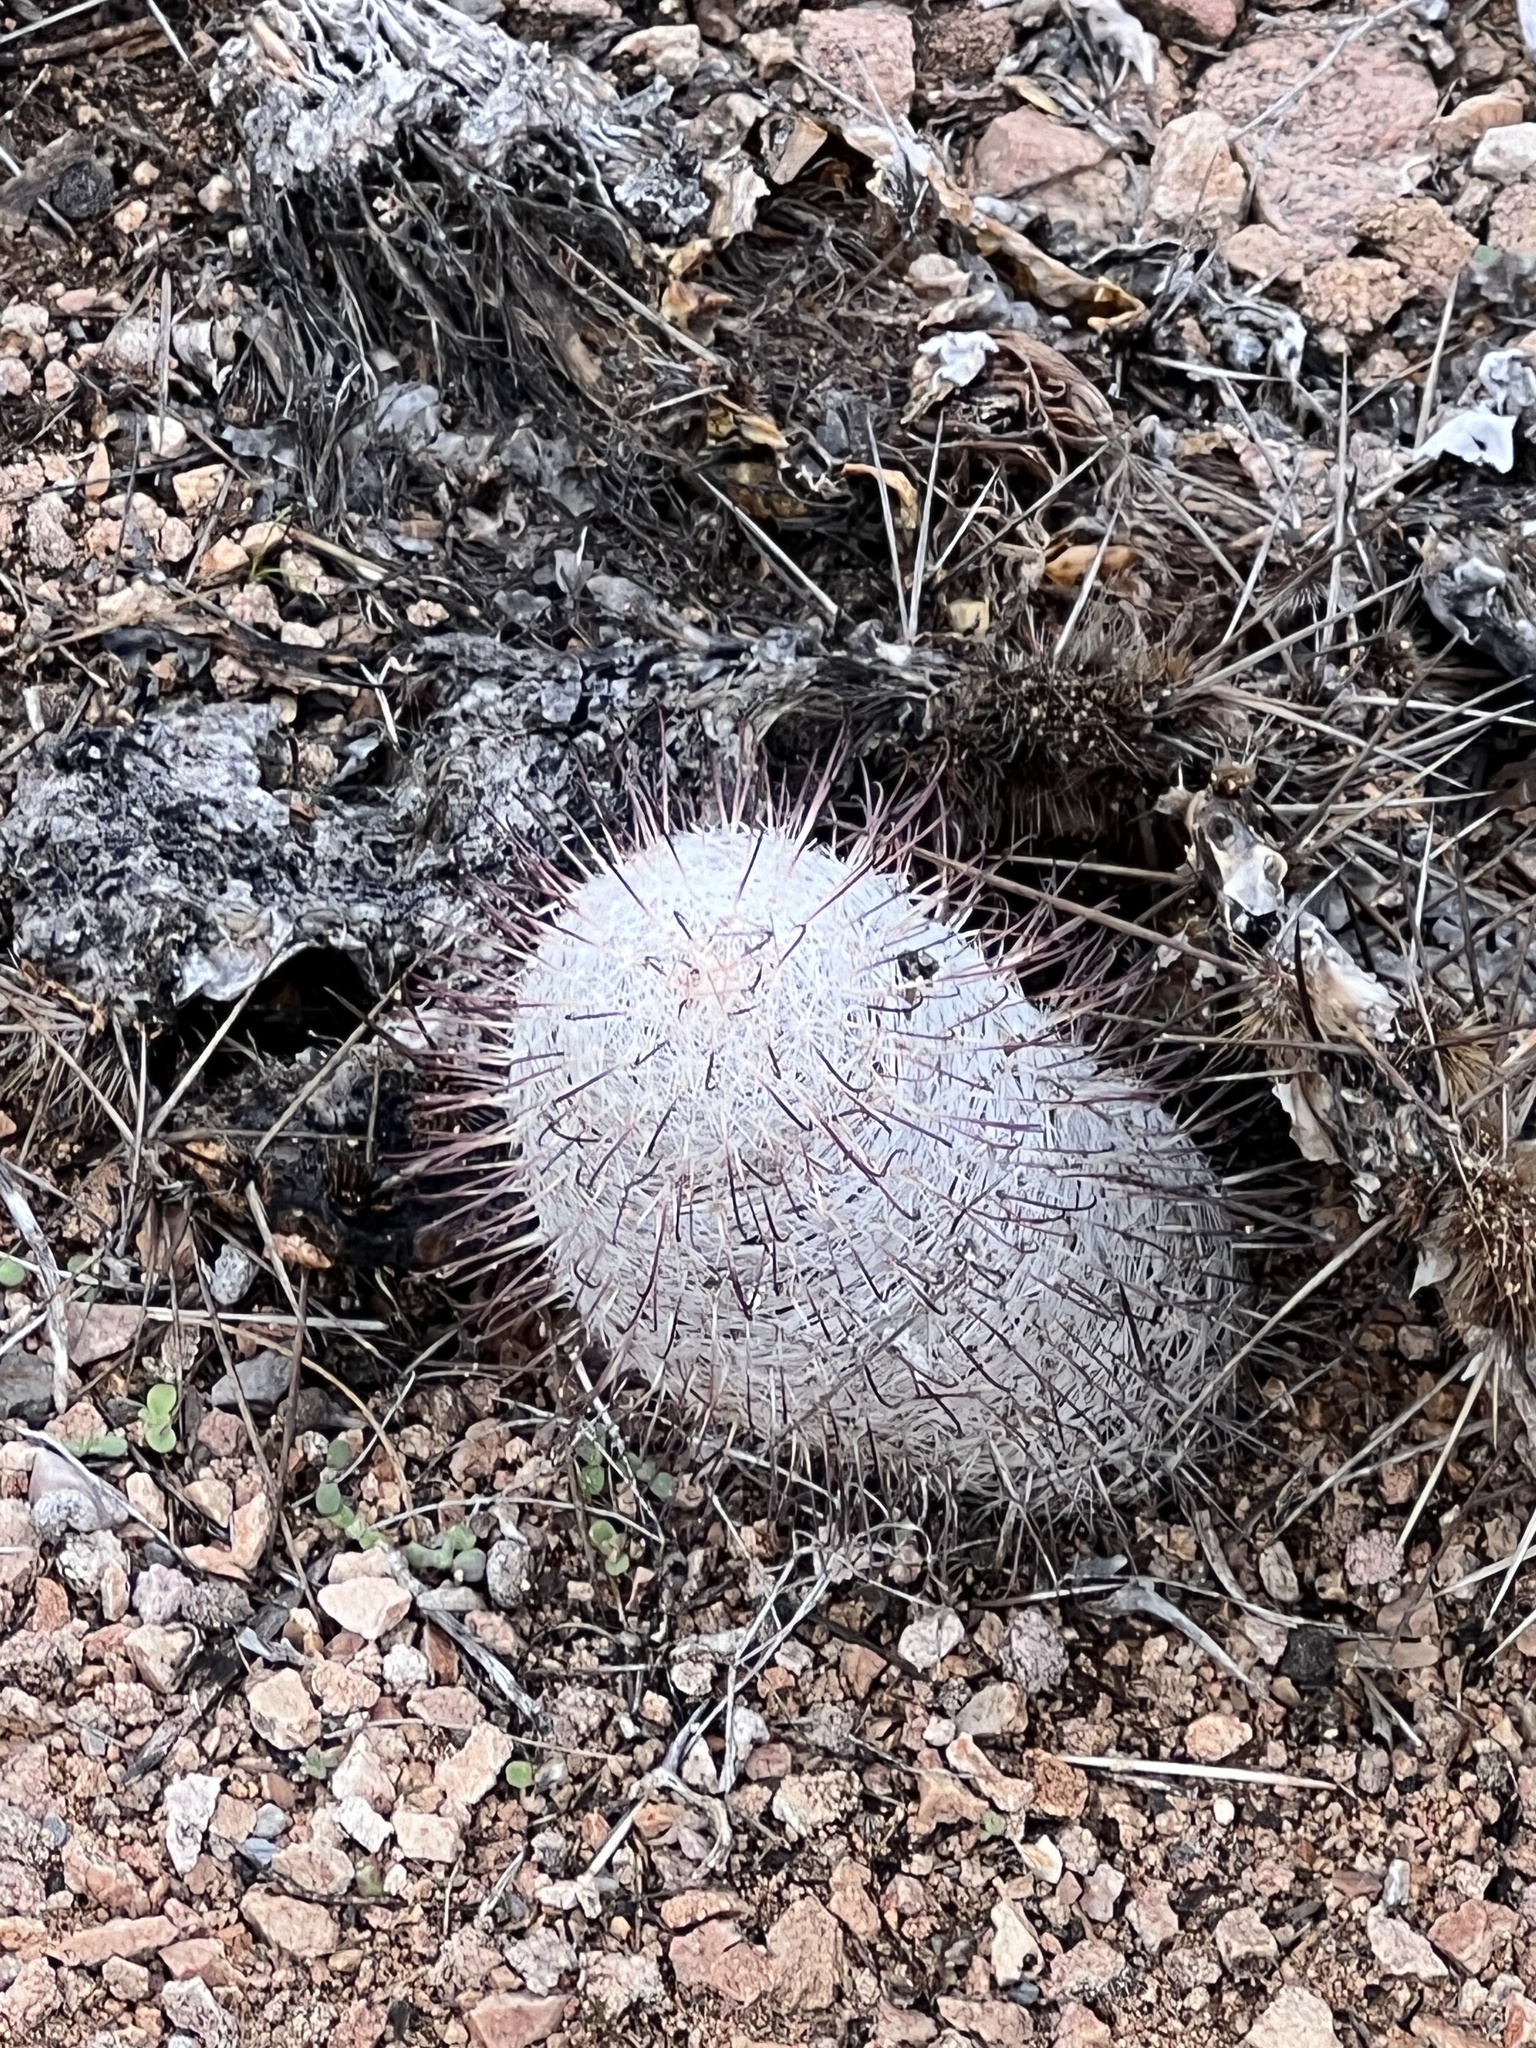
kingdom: Plantae
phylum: Tracheophyta
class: Magnoliopsida
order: Caryophyllales
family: Cactaceae
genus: Cochemiea
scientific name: Cochemiea grahamii
